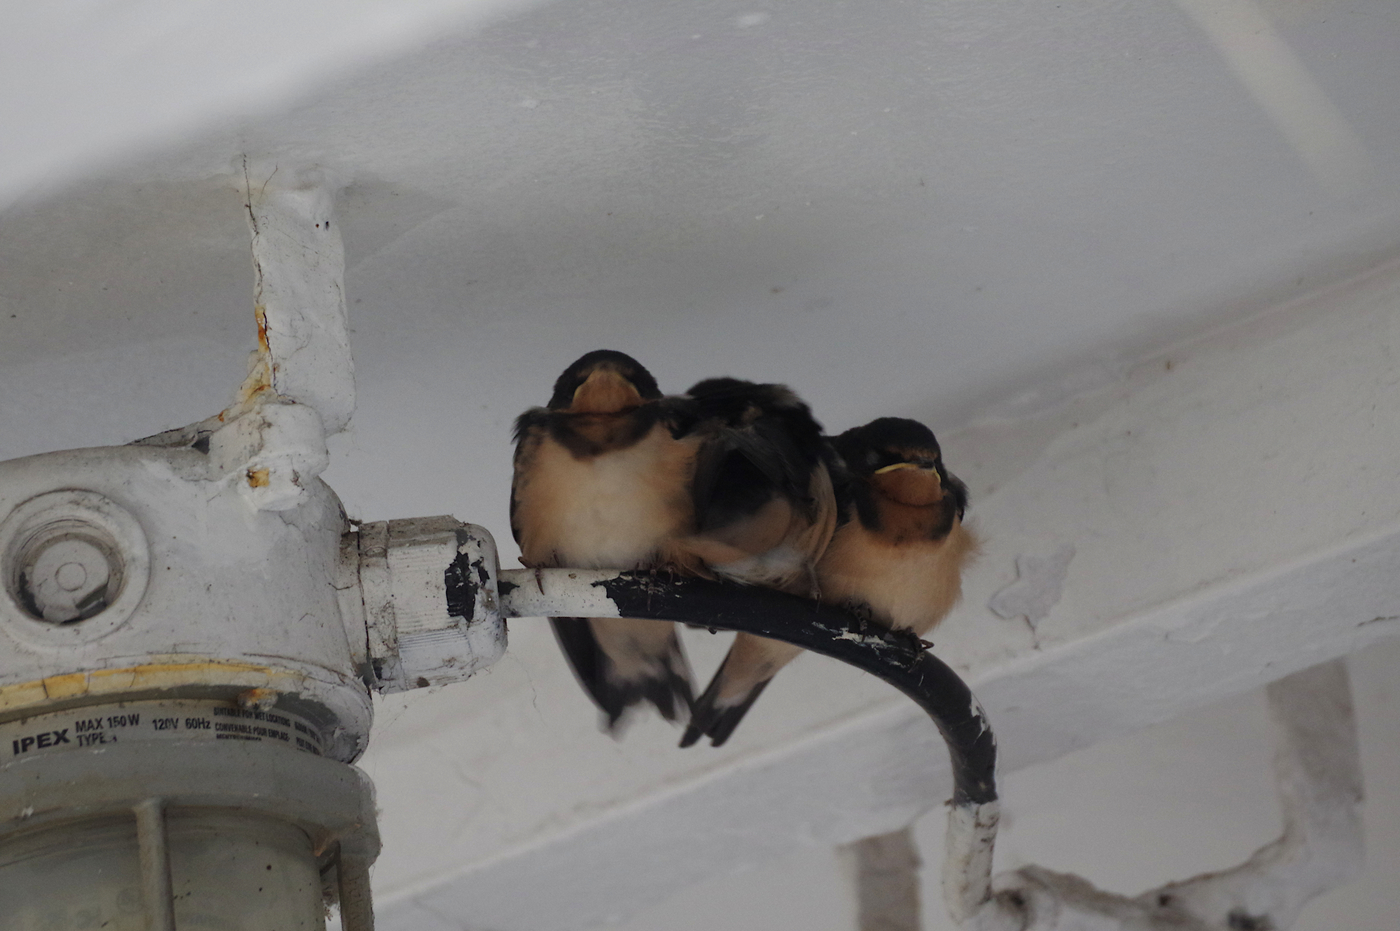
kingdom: Animalia
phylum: Chordata
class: Aves
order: Passeriformes
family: Hirundinidae
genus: Hirundo
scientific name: Hirundo rustica
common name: Barn swallow
